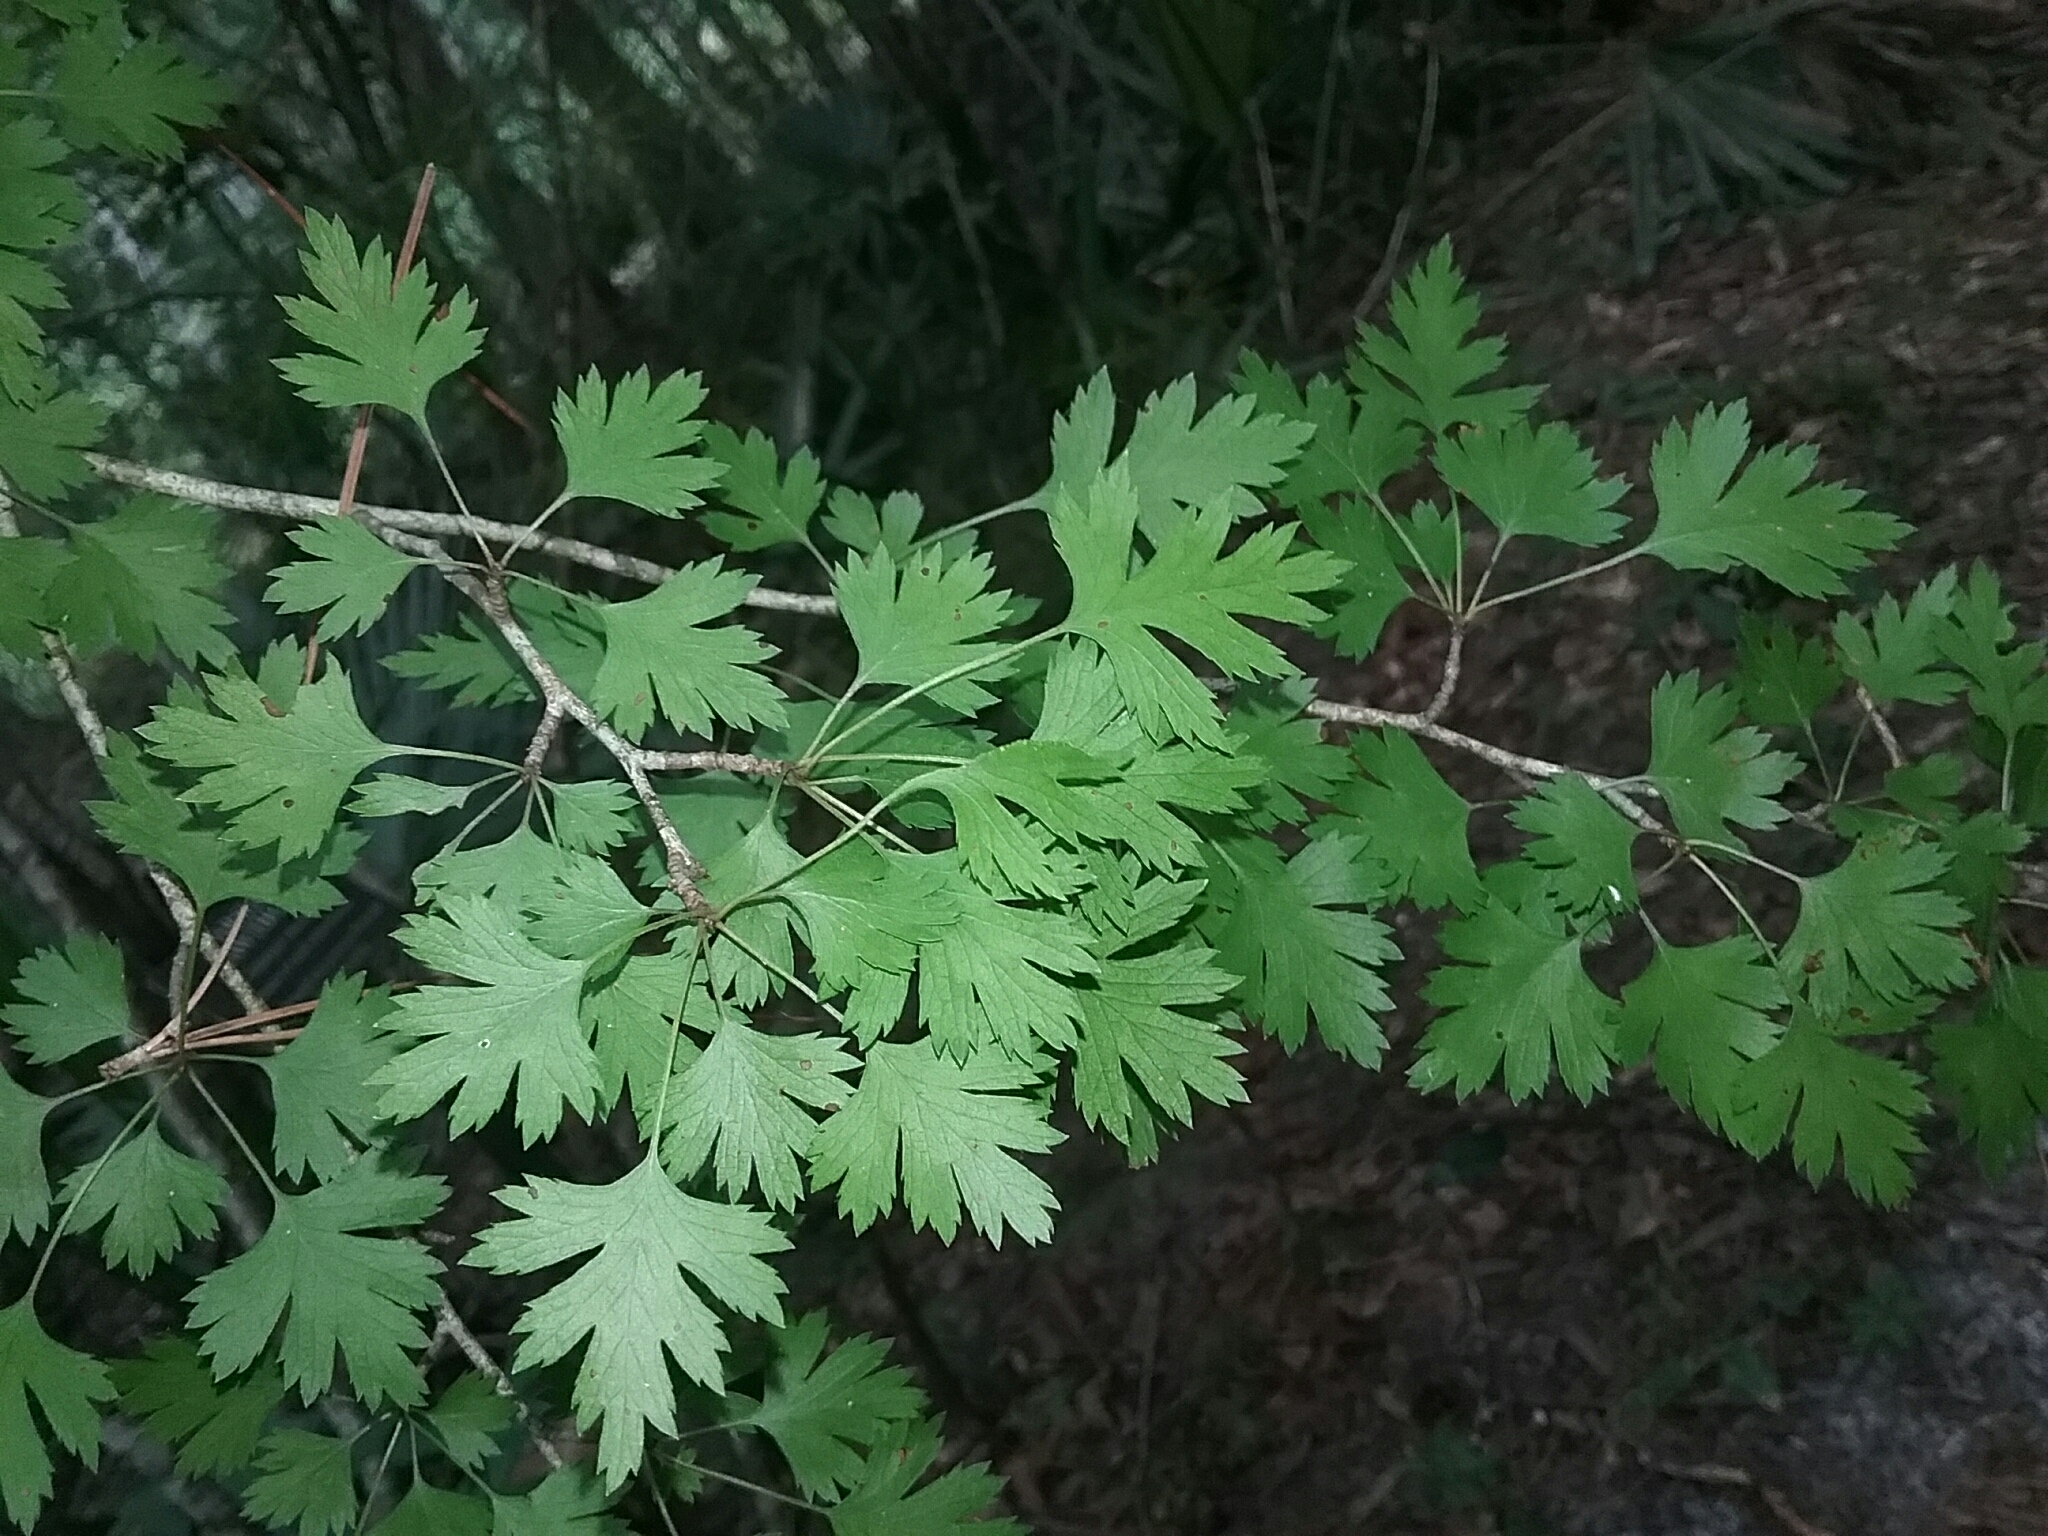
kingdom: Plantae
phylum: Tracheophyta
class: Magnoliopsida
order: Rosales
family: Rosaceae
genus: Crataegus
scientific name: Crataegus marshallii
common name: Parsley-hawthorn
